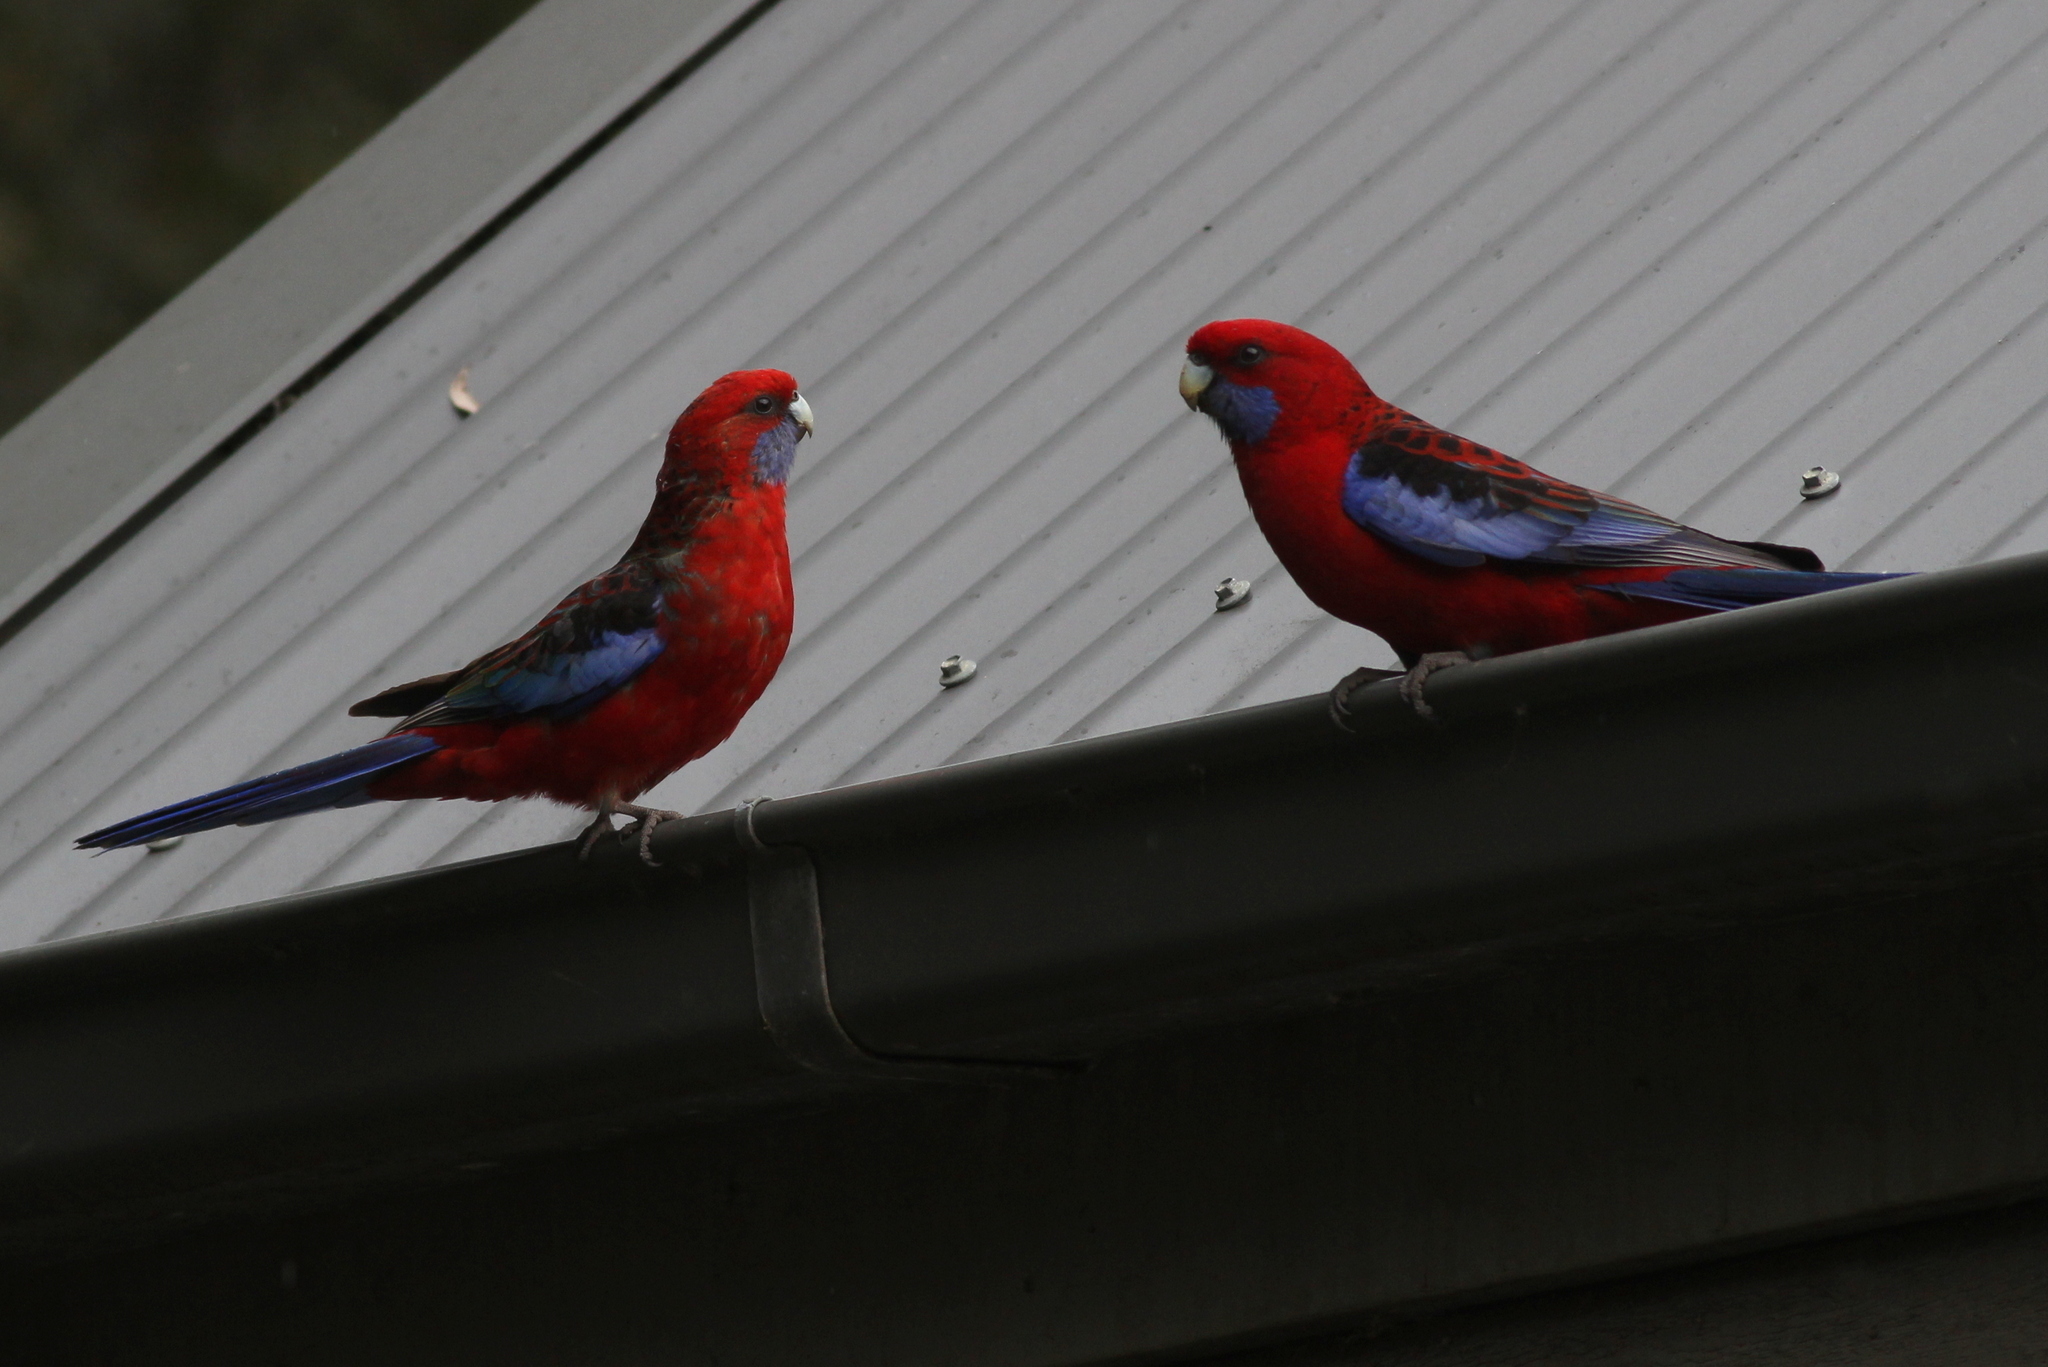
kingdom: Animalia
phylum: Chordata
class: Aves
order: Psittaciformes
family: Psittacidae
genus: Platycercus
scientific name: Platycercus elegans
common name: Crimson rosella
